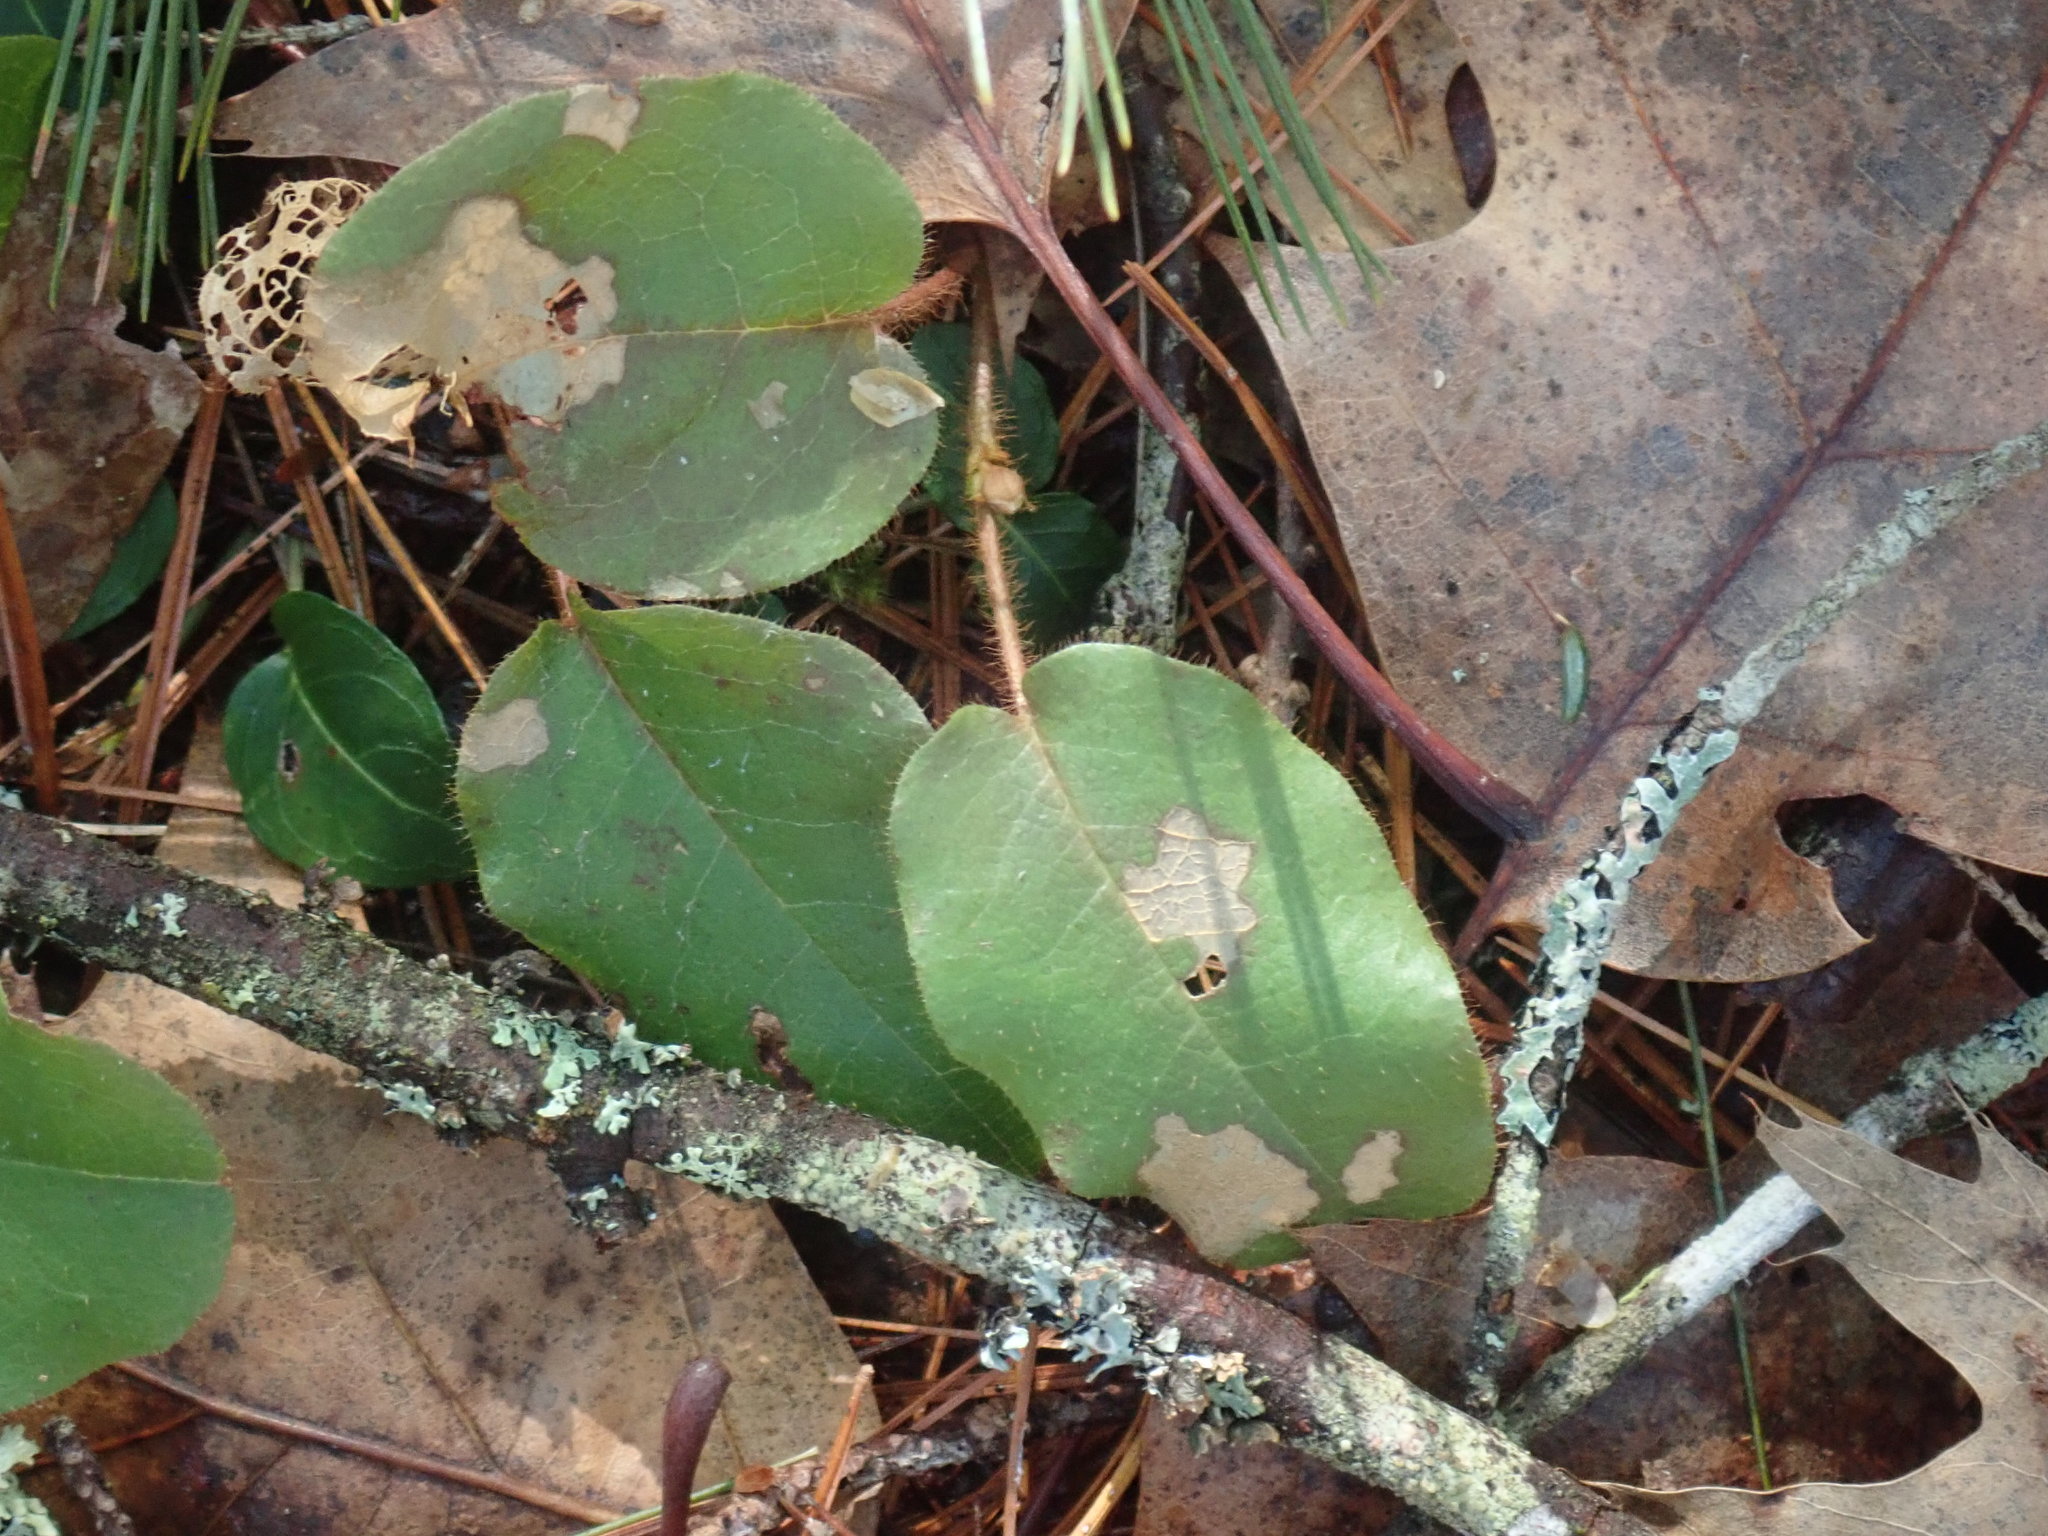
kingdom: Plantae
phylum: Tracheophyta
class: Magnoliopsida
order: Ericales
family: Ericaceae
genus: Epigaea
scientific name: Epigaea repens
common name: Gravelroot
